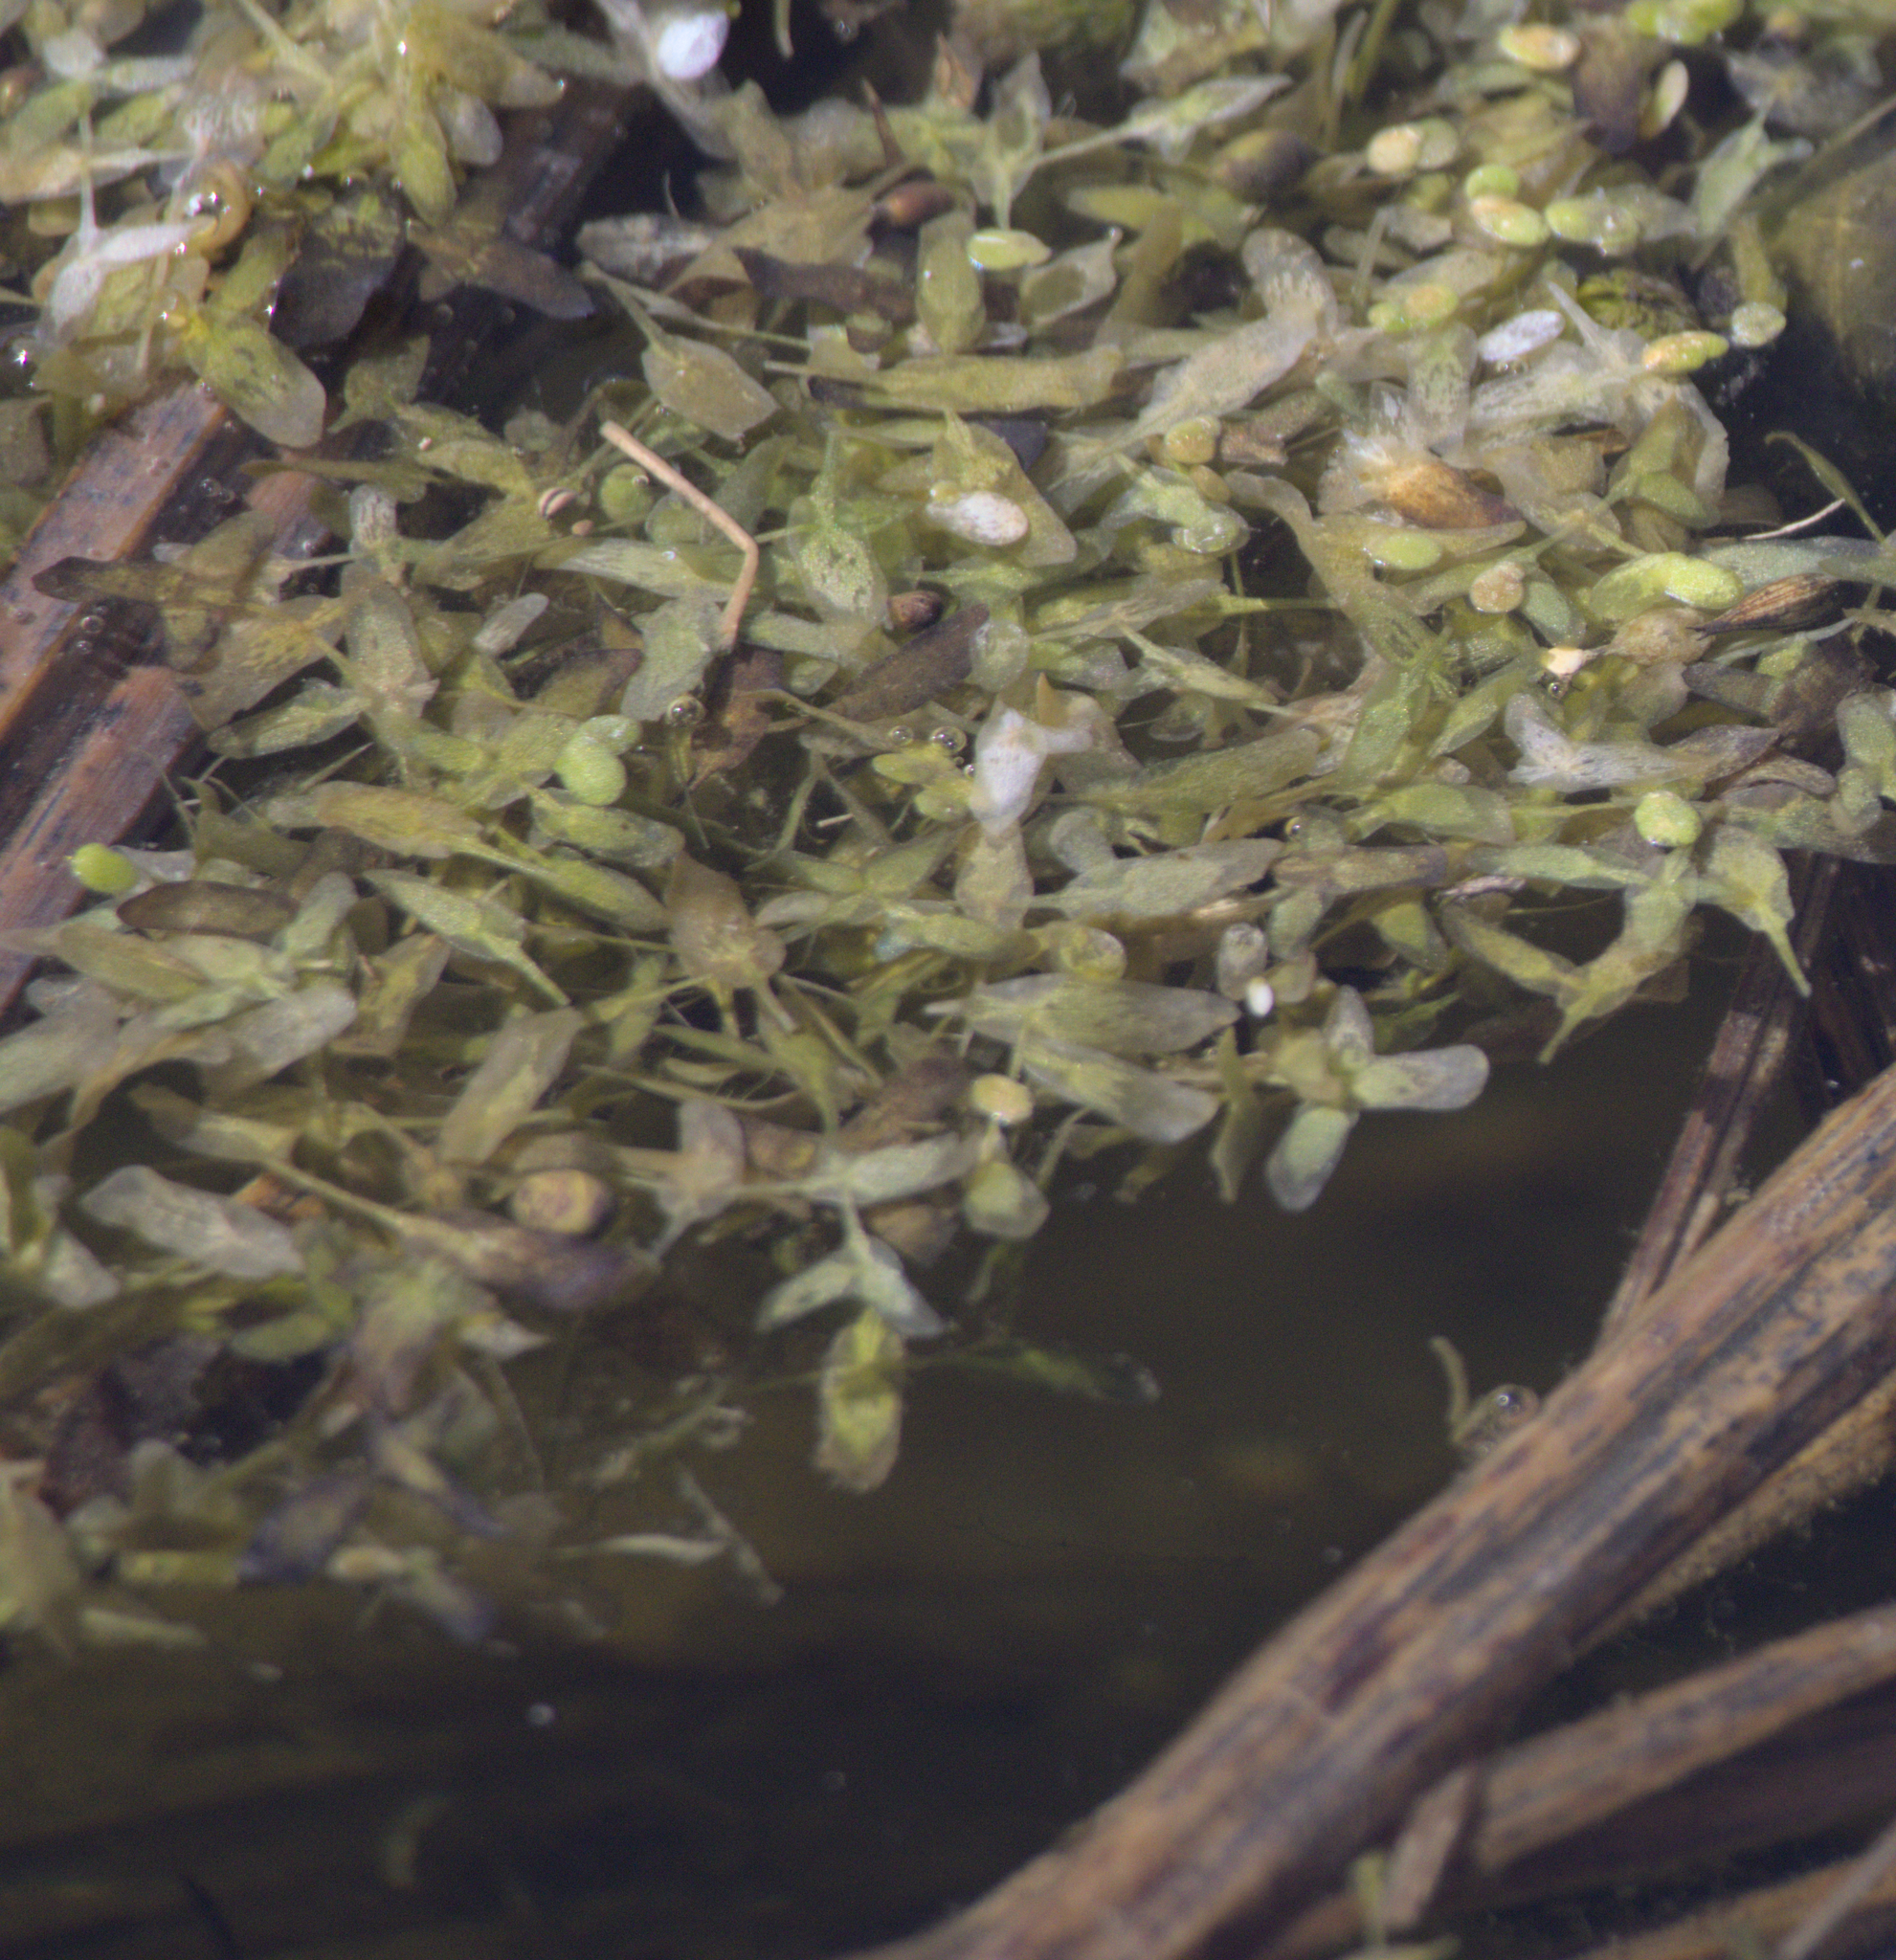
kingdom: Plantae
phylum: Tracheophyta
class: Liliopsida
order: Alismatales
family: Araceae
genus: Lemna
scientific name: Lemna trisulca
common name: Ivy-leaved duckweed
